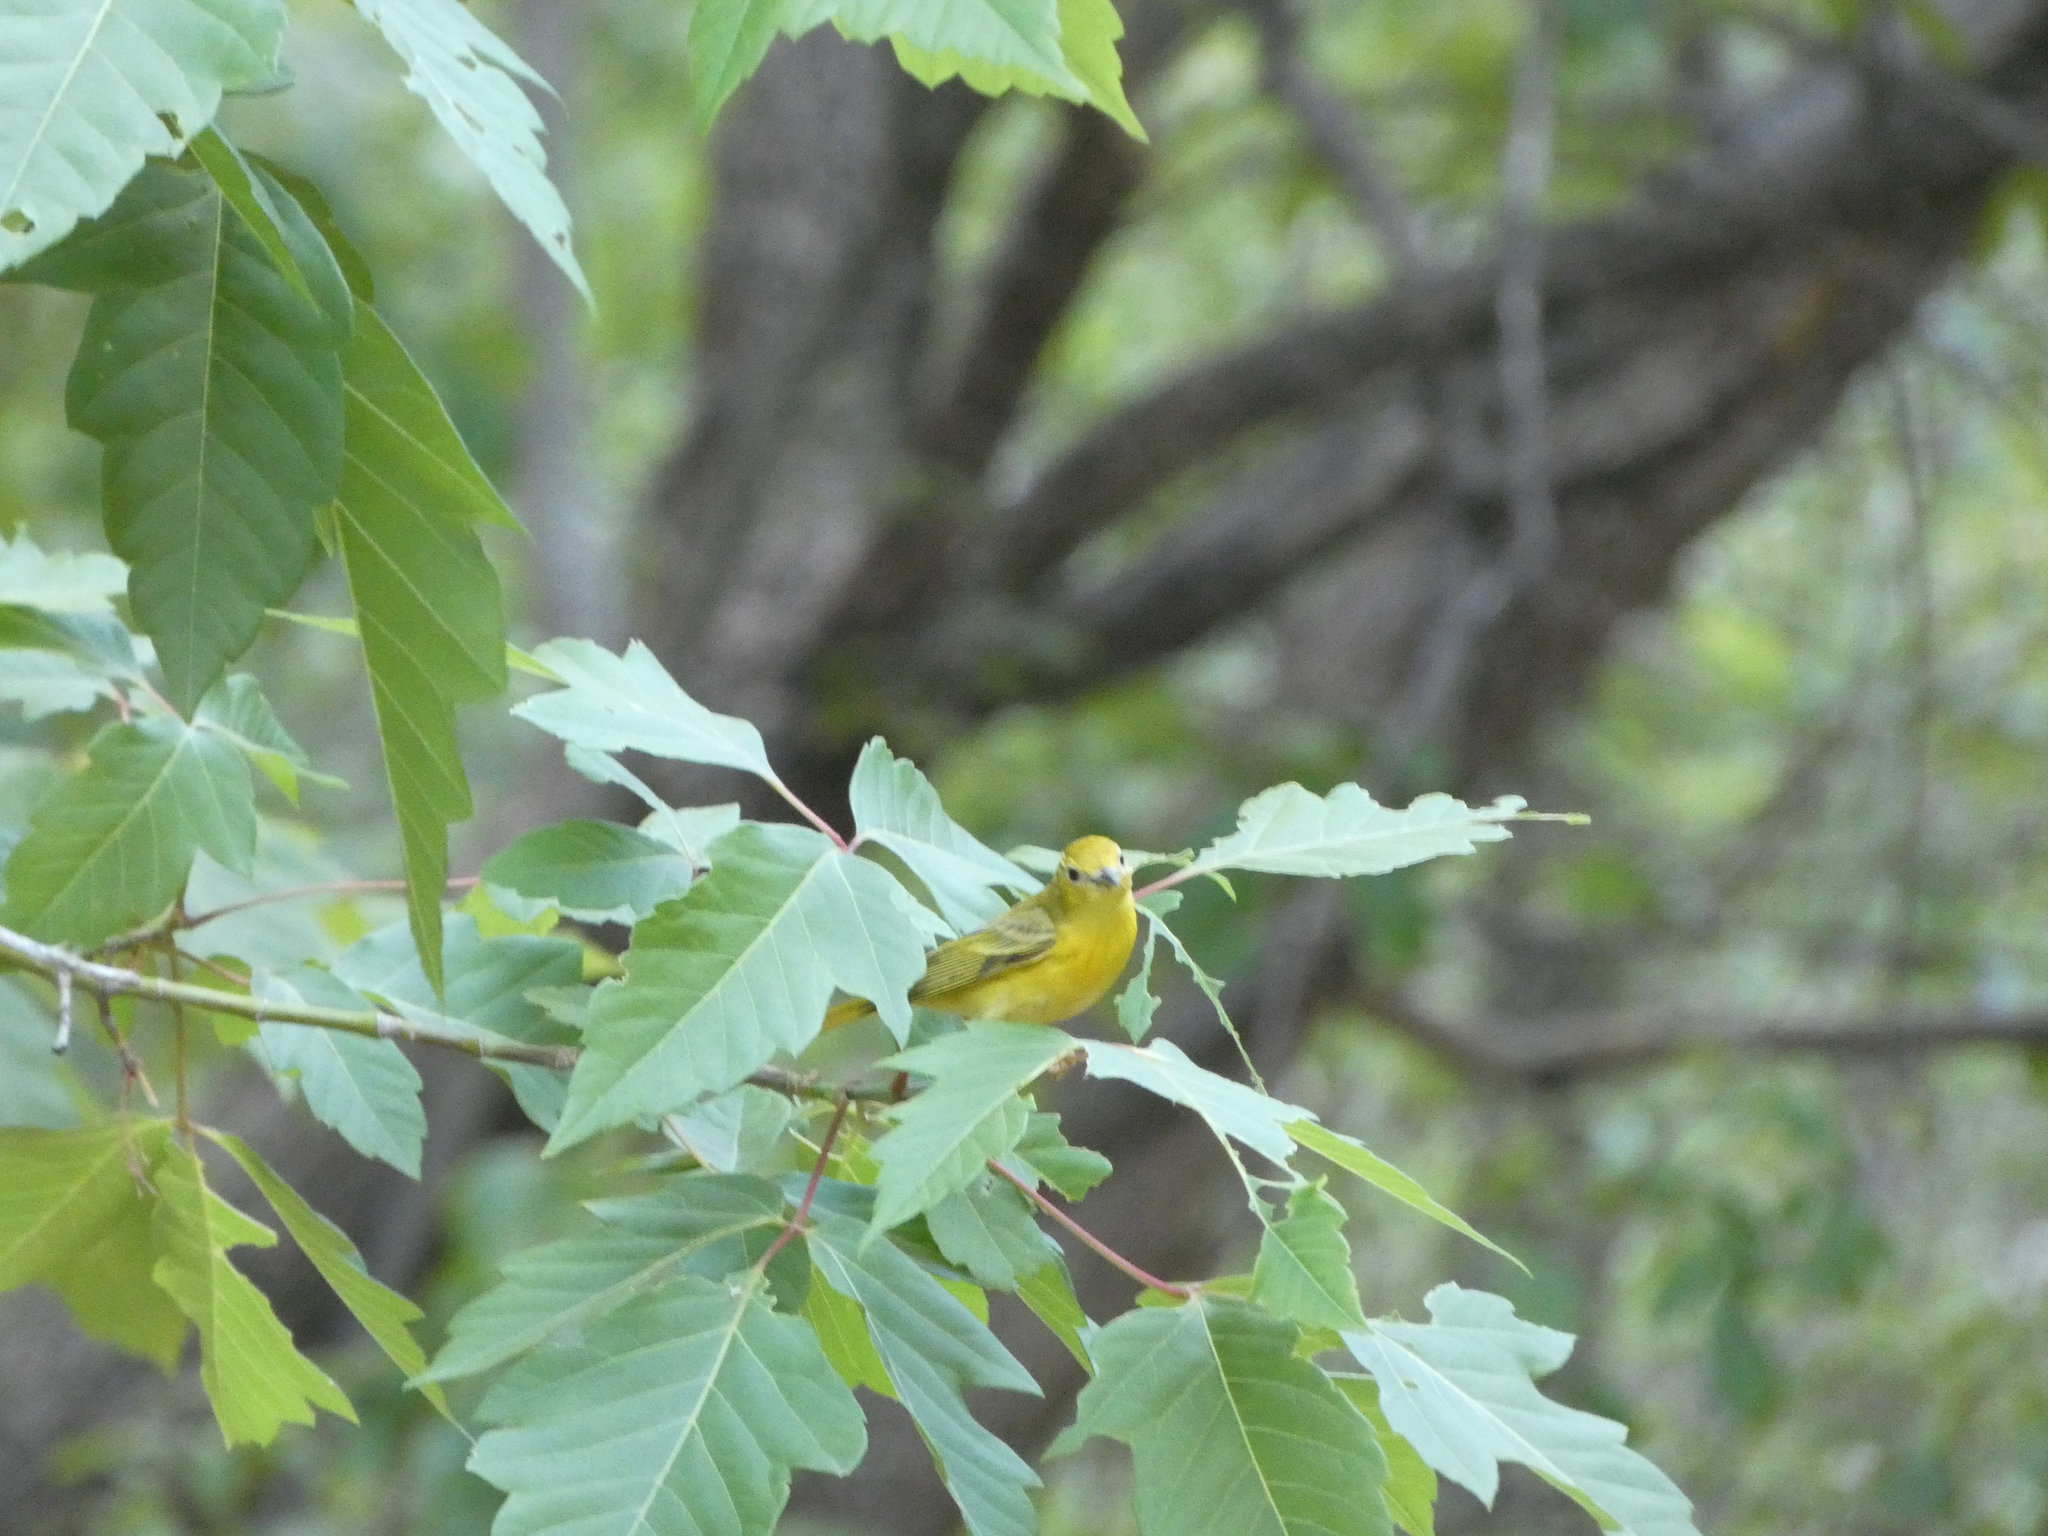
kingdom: Animalia
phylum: Chordata
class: Aves
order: Passeriformes
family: Parulidae
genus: Setophaga
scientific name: Setophaga petechia
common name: Yellow warbler
